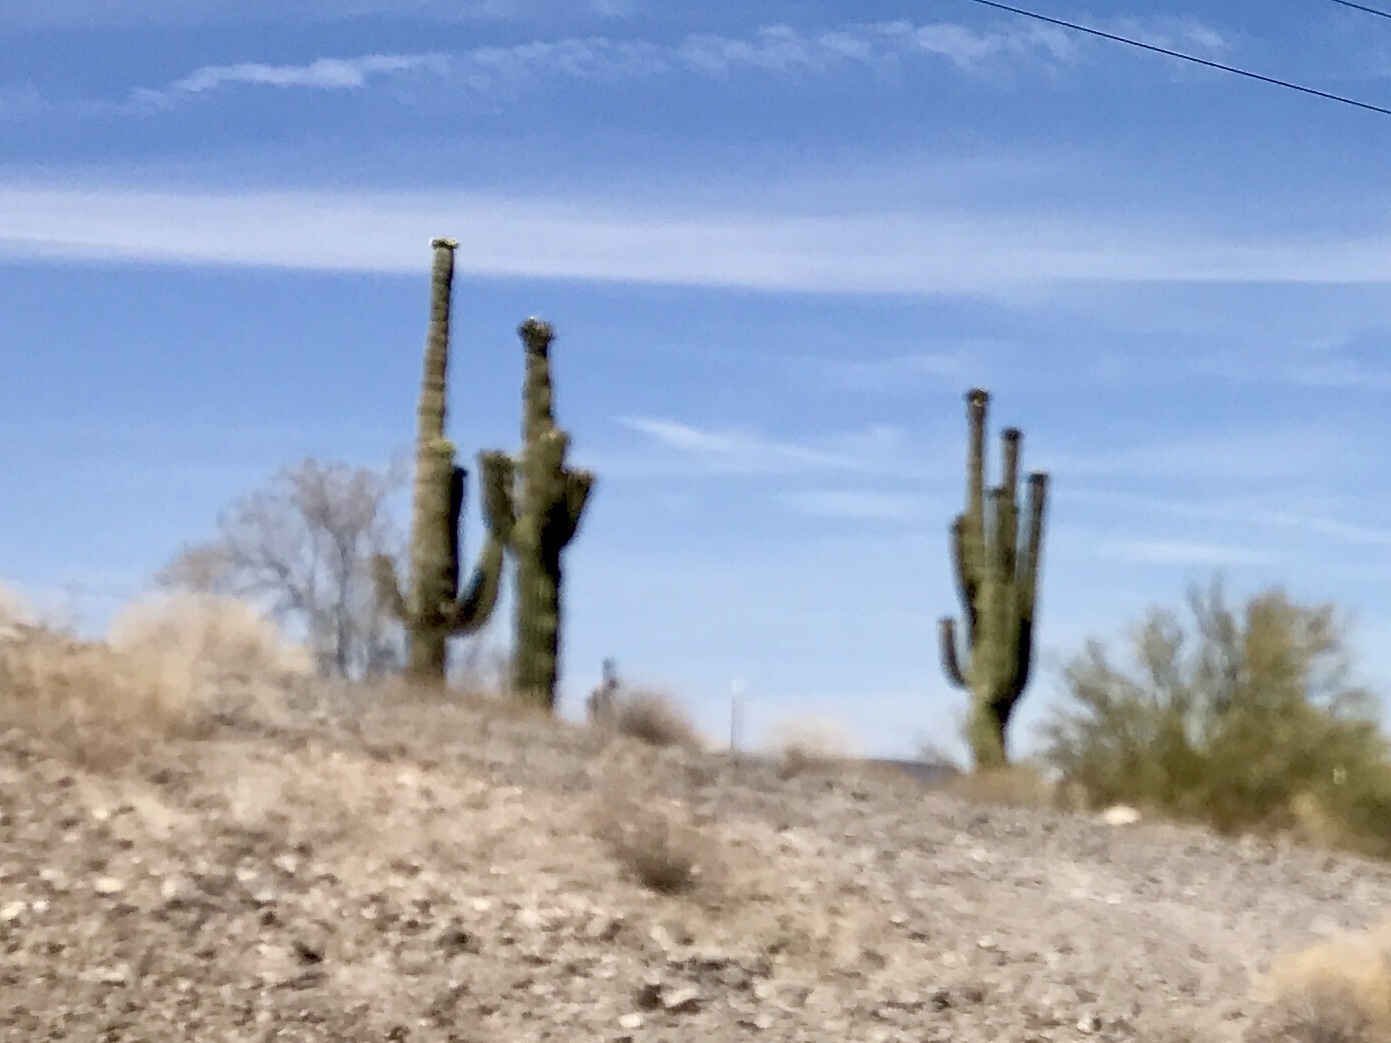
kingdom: Plantae
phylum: Tracheophyta
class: Magnoliopsida
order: Caryophyllales
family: Cactaceae
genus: Carnegiea
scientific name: Carnegiea gigantea
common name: Saguaro
